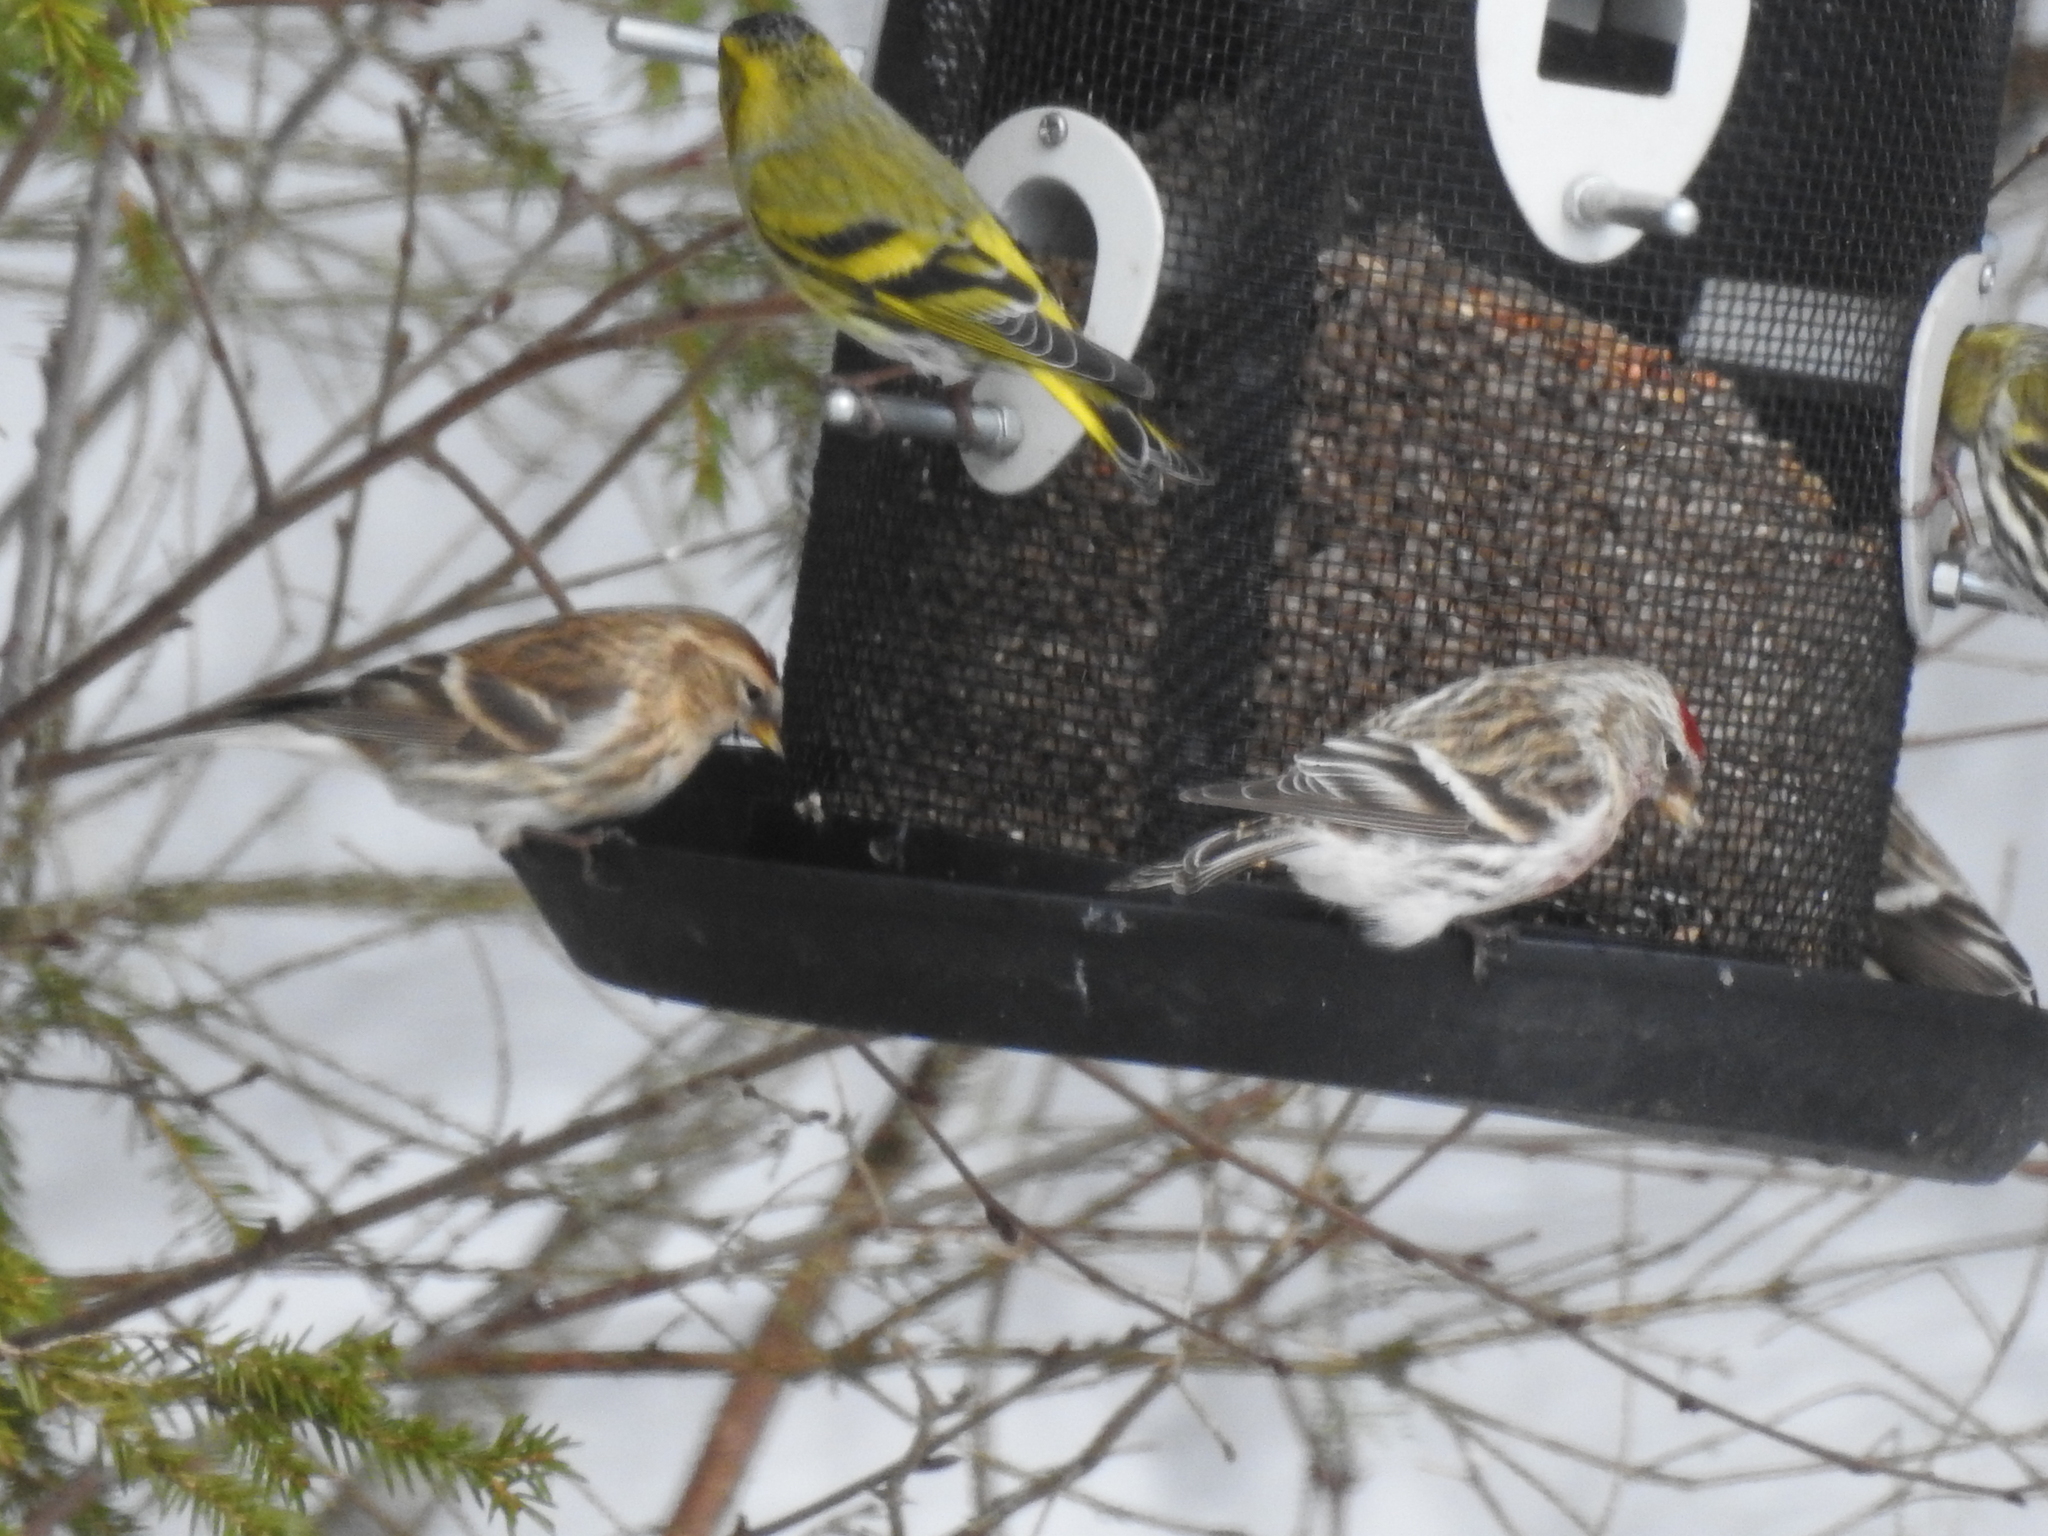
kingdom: Animalia
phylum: Chordata
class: Aves
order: Passeriformes
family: Fringillidae
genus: Acanthis
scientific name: Acanthis flammea
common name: Common redpoll
